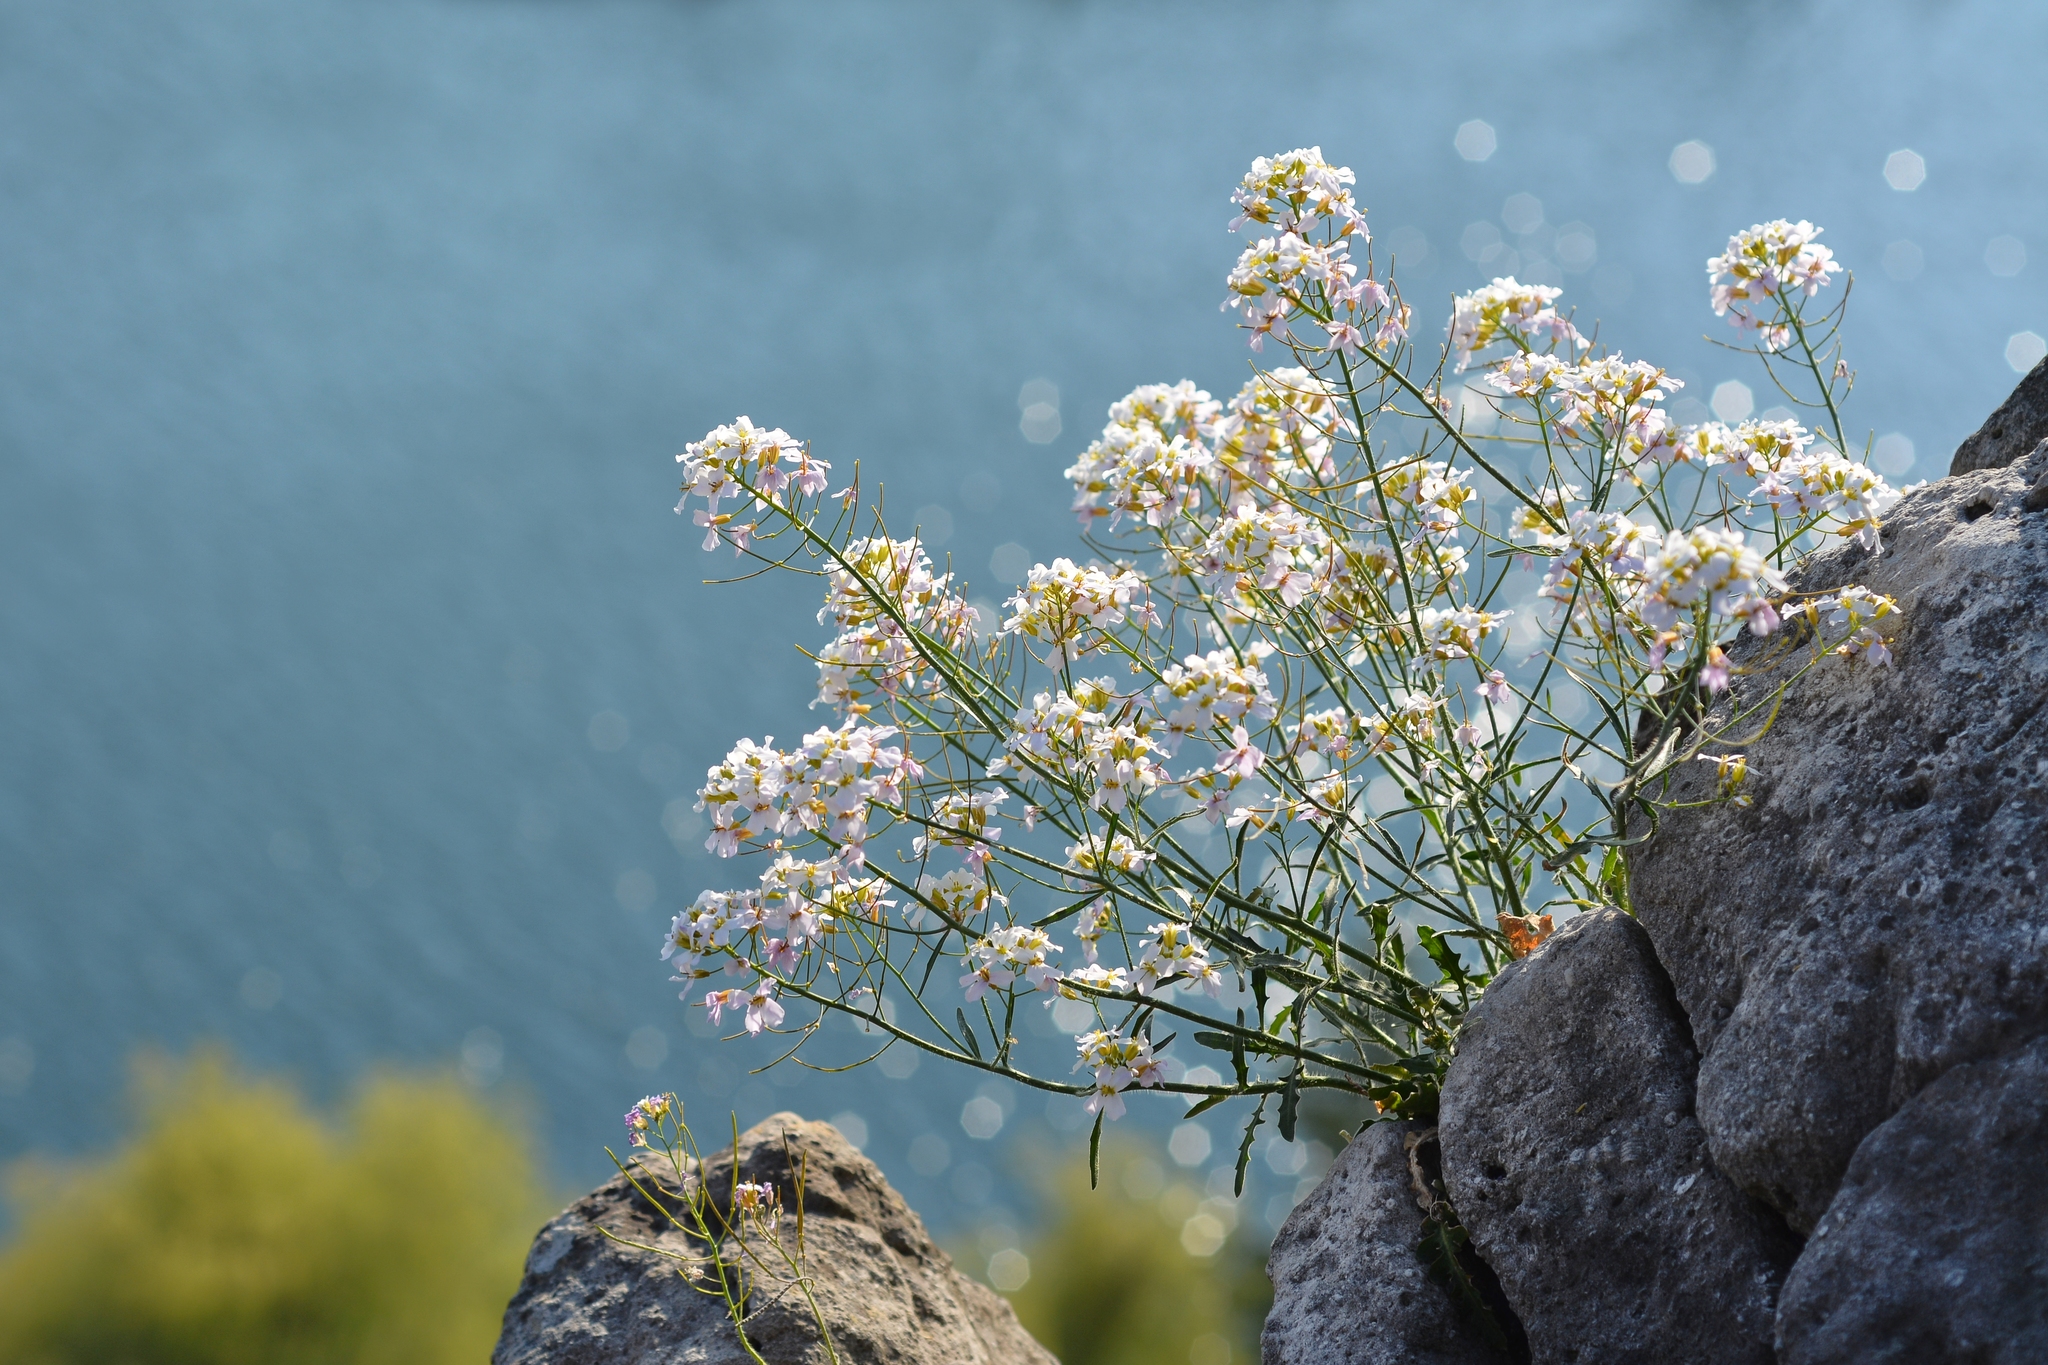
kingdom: Plantae
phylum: Tracheophyta
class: Magnoliopsida
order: Brassicales
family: Brassicaceae
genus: Arabidopsis
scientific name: Arabidopsis arenosa
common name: Sand rock-cress
